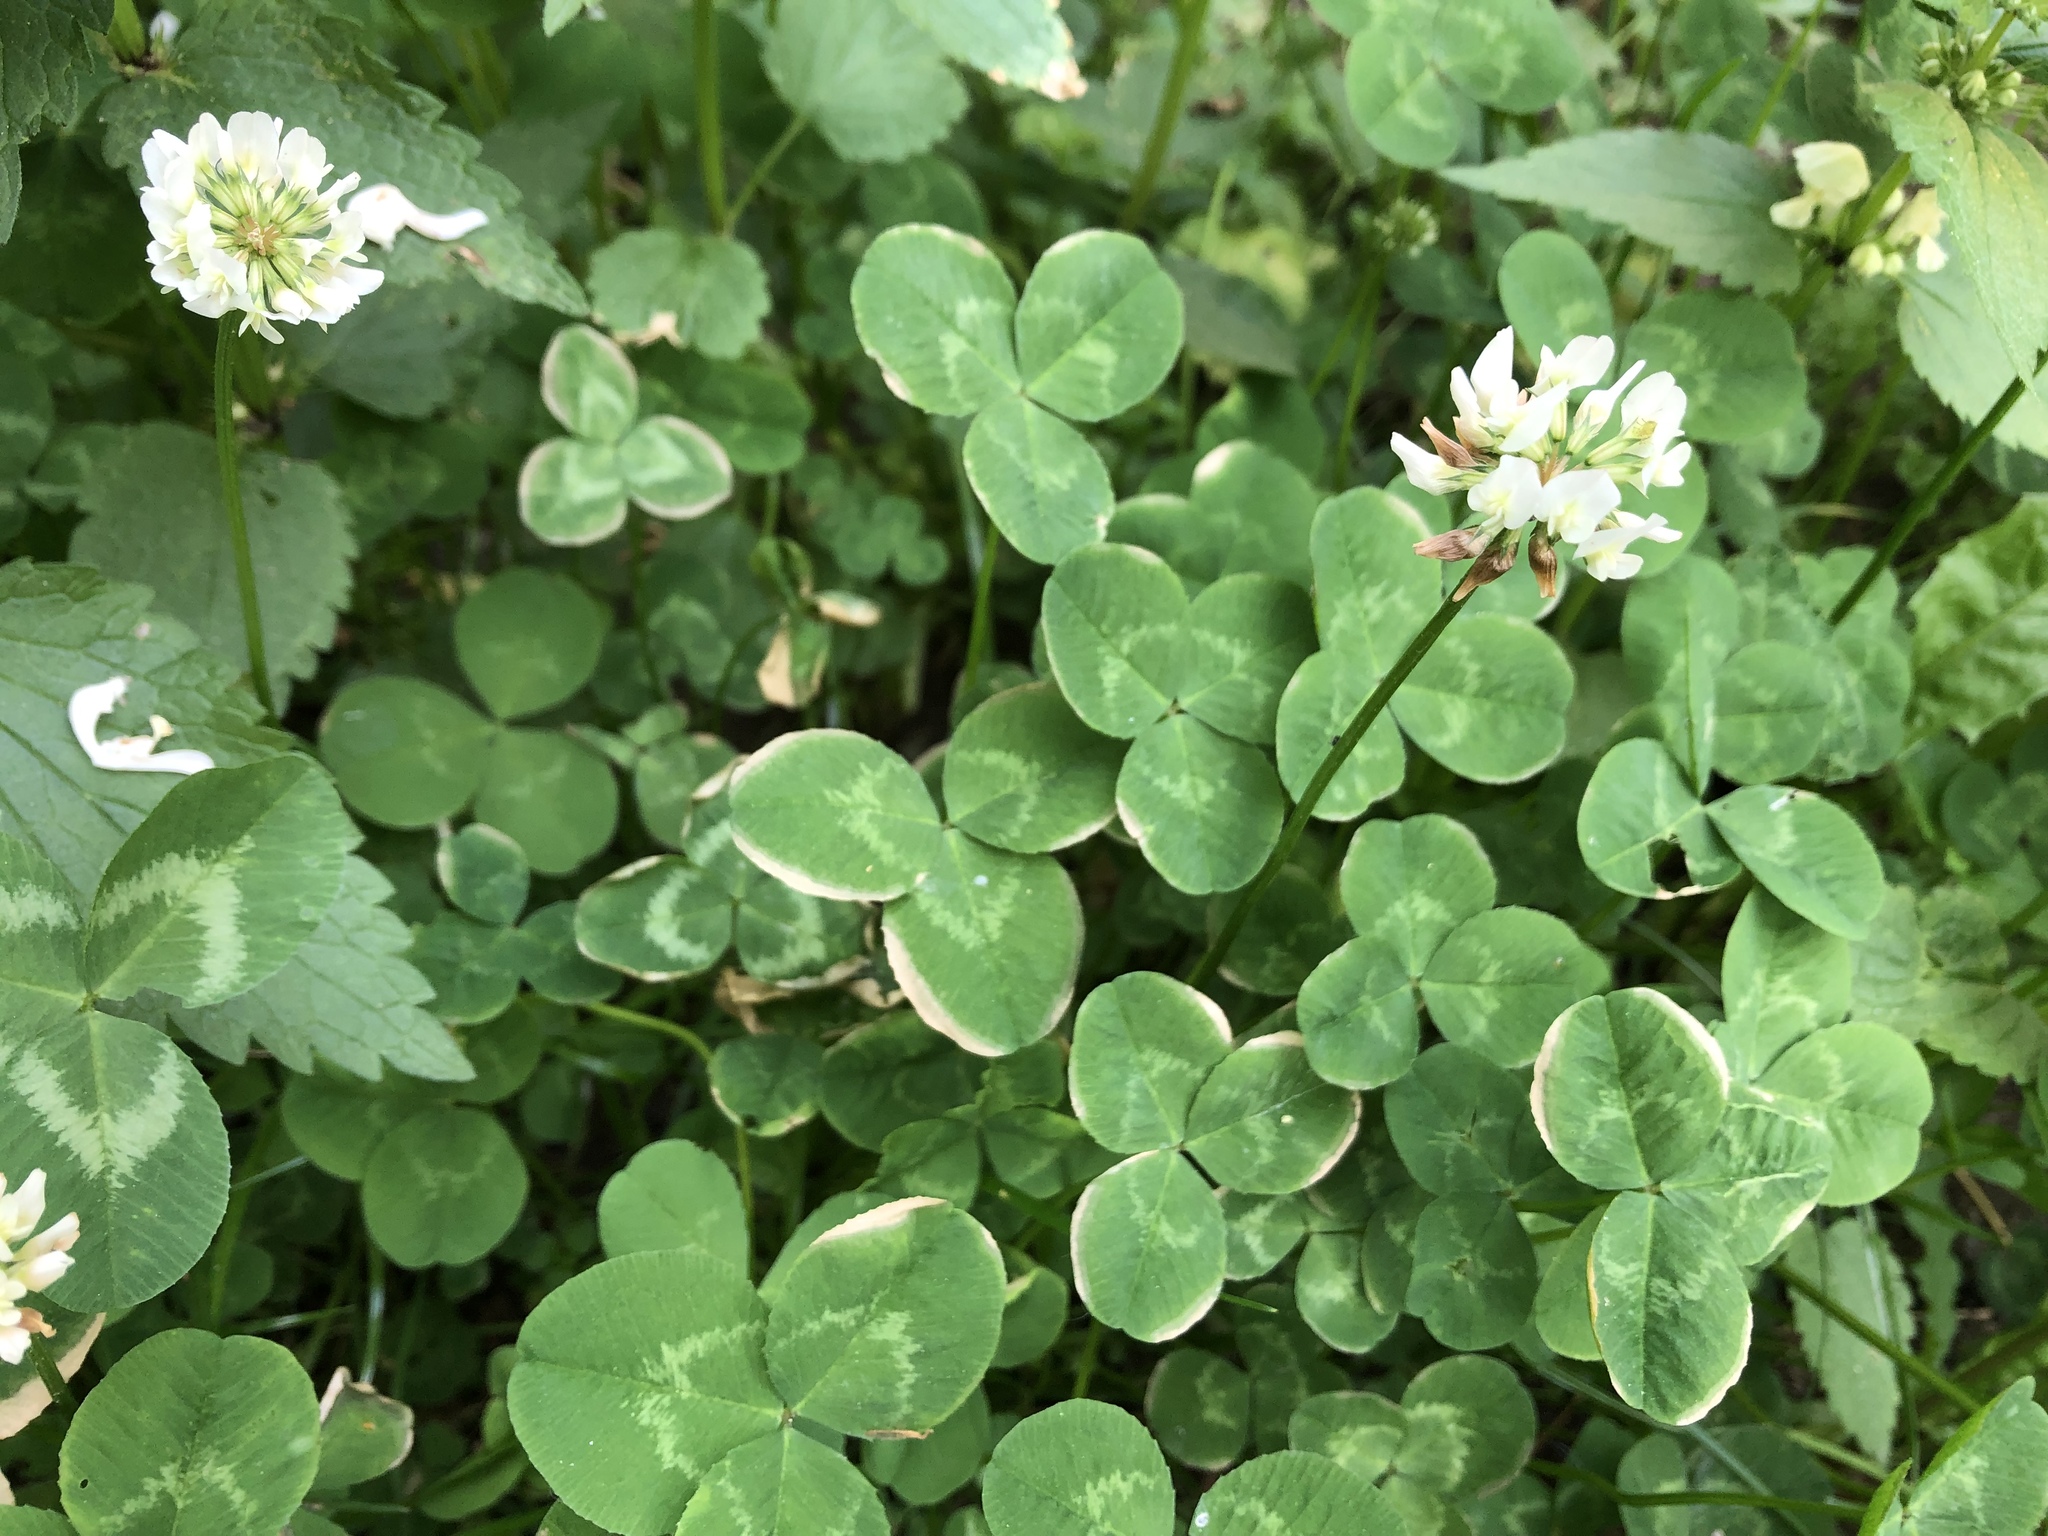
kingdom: Plantae
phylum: Tracheophyta
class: Magnoliopsida
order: Fabales
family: Fabaceae
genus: Trifolium
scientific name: Trifolium repens
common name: White clover
